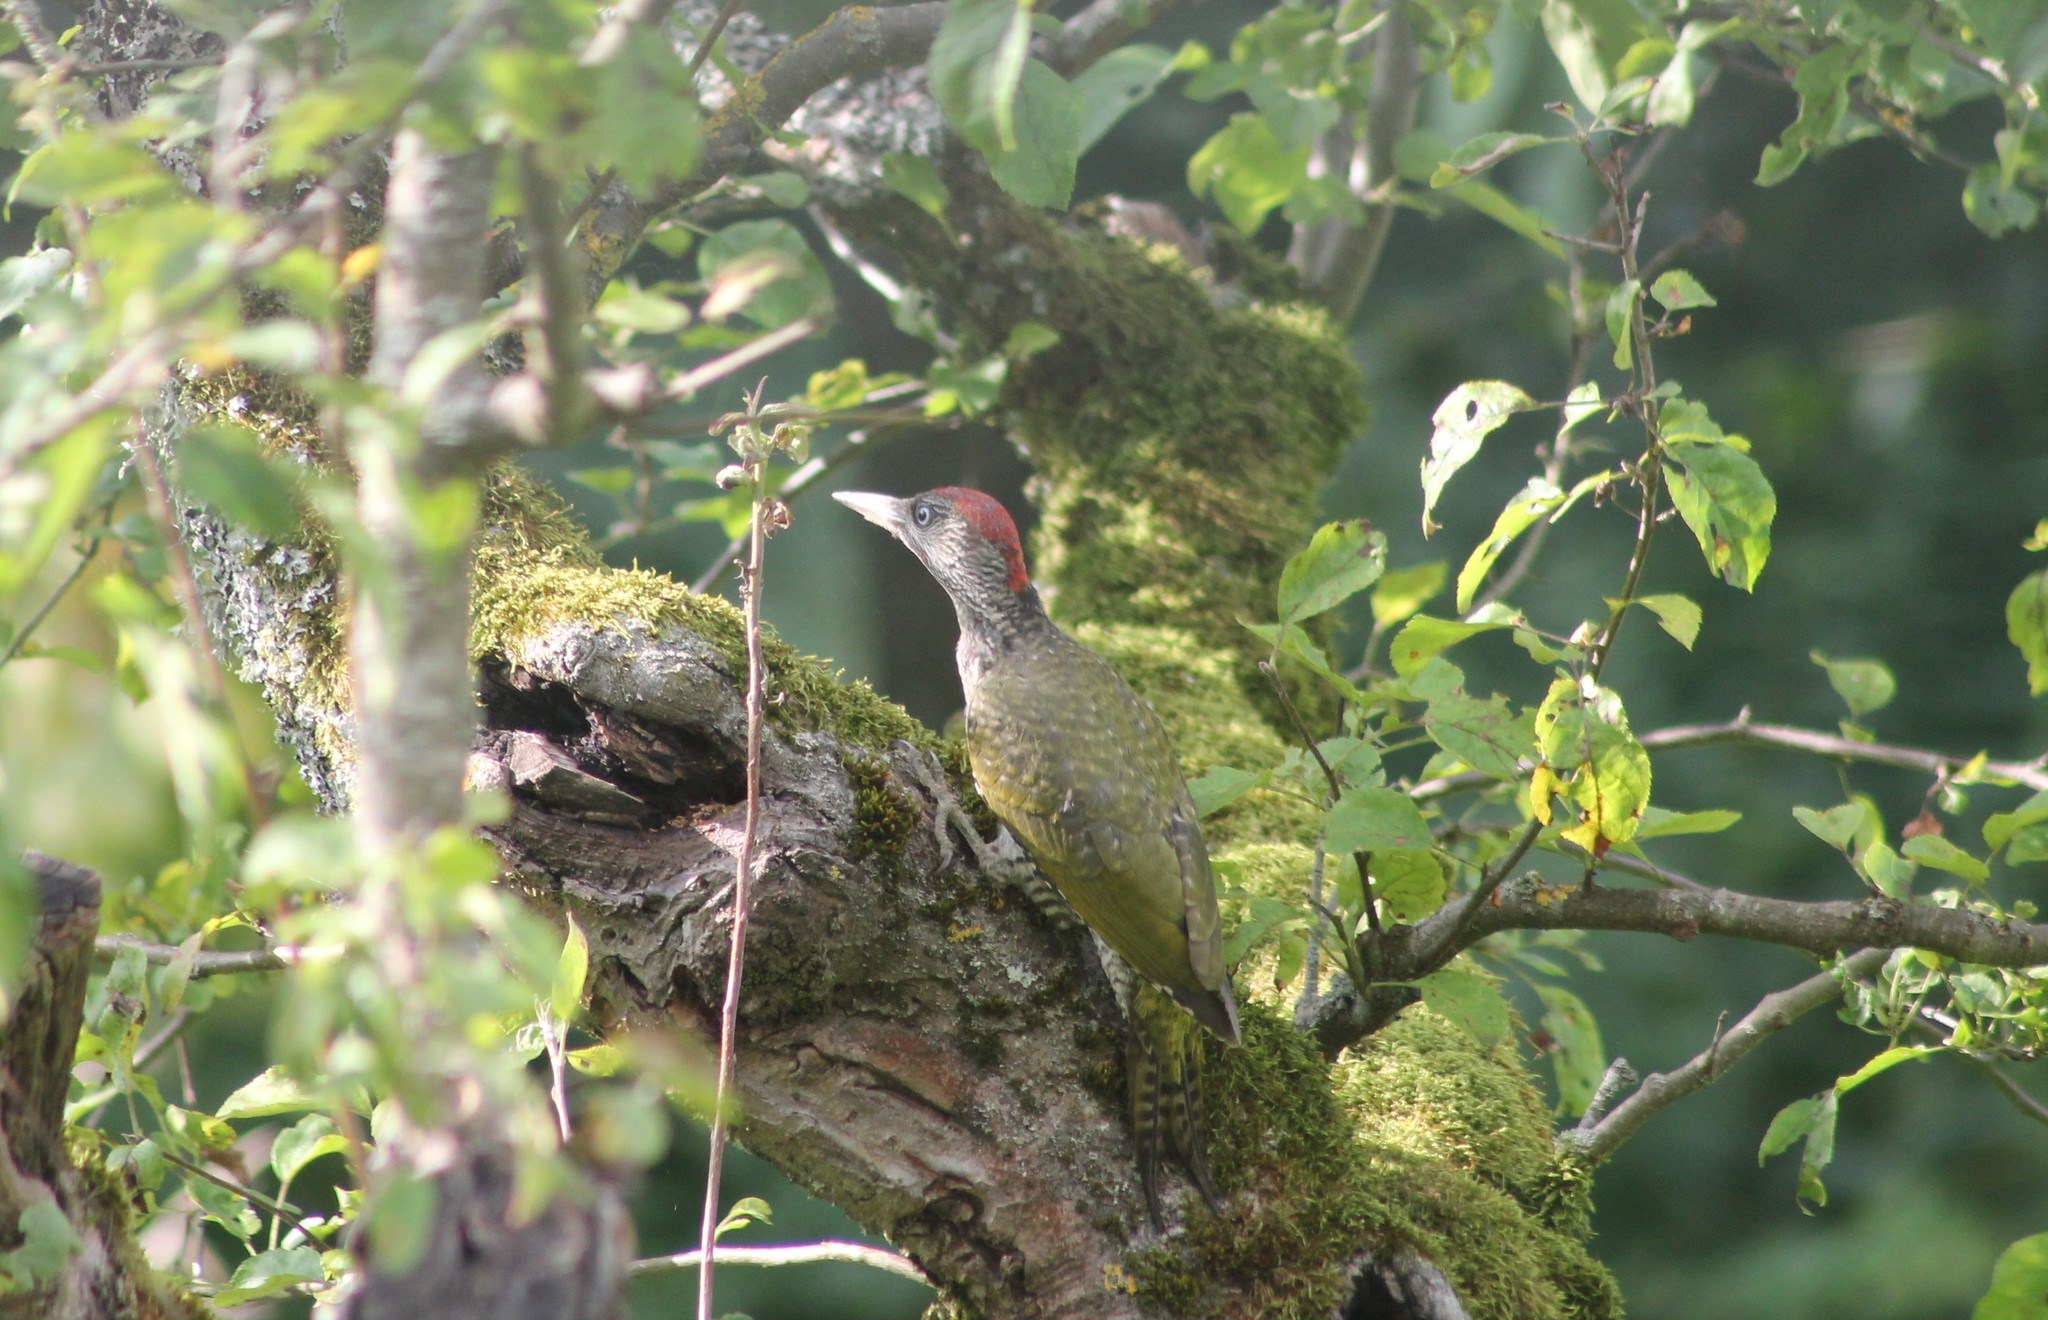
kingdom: Animalia
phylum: Chordata
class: Aves
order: Piciformes
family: Picidae
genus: Picus
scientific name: Picus viridis
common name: European green woodpecker
